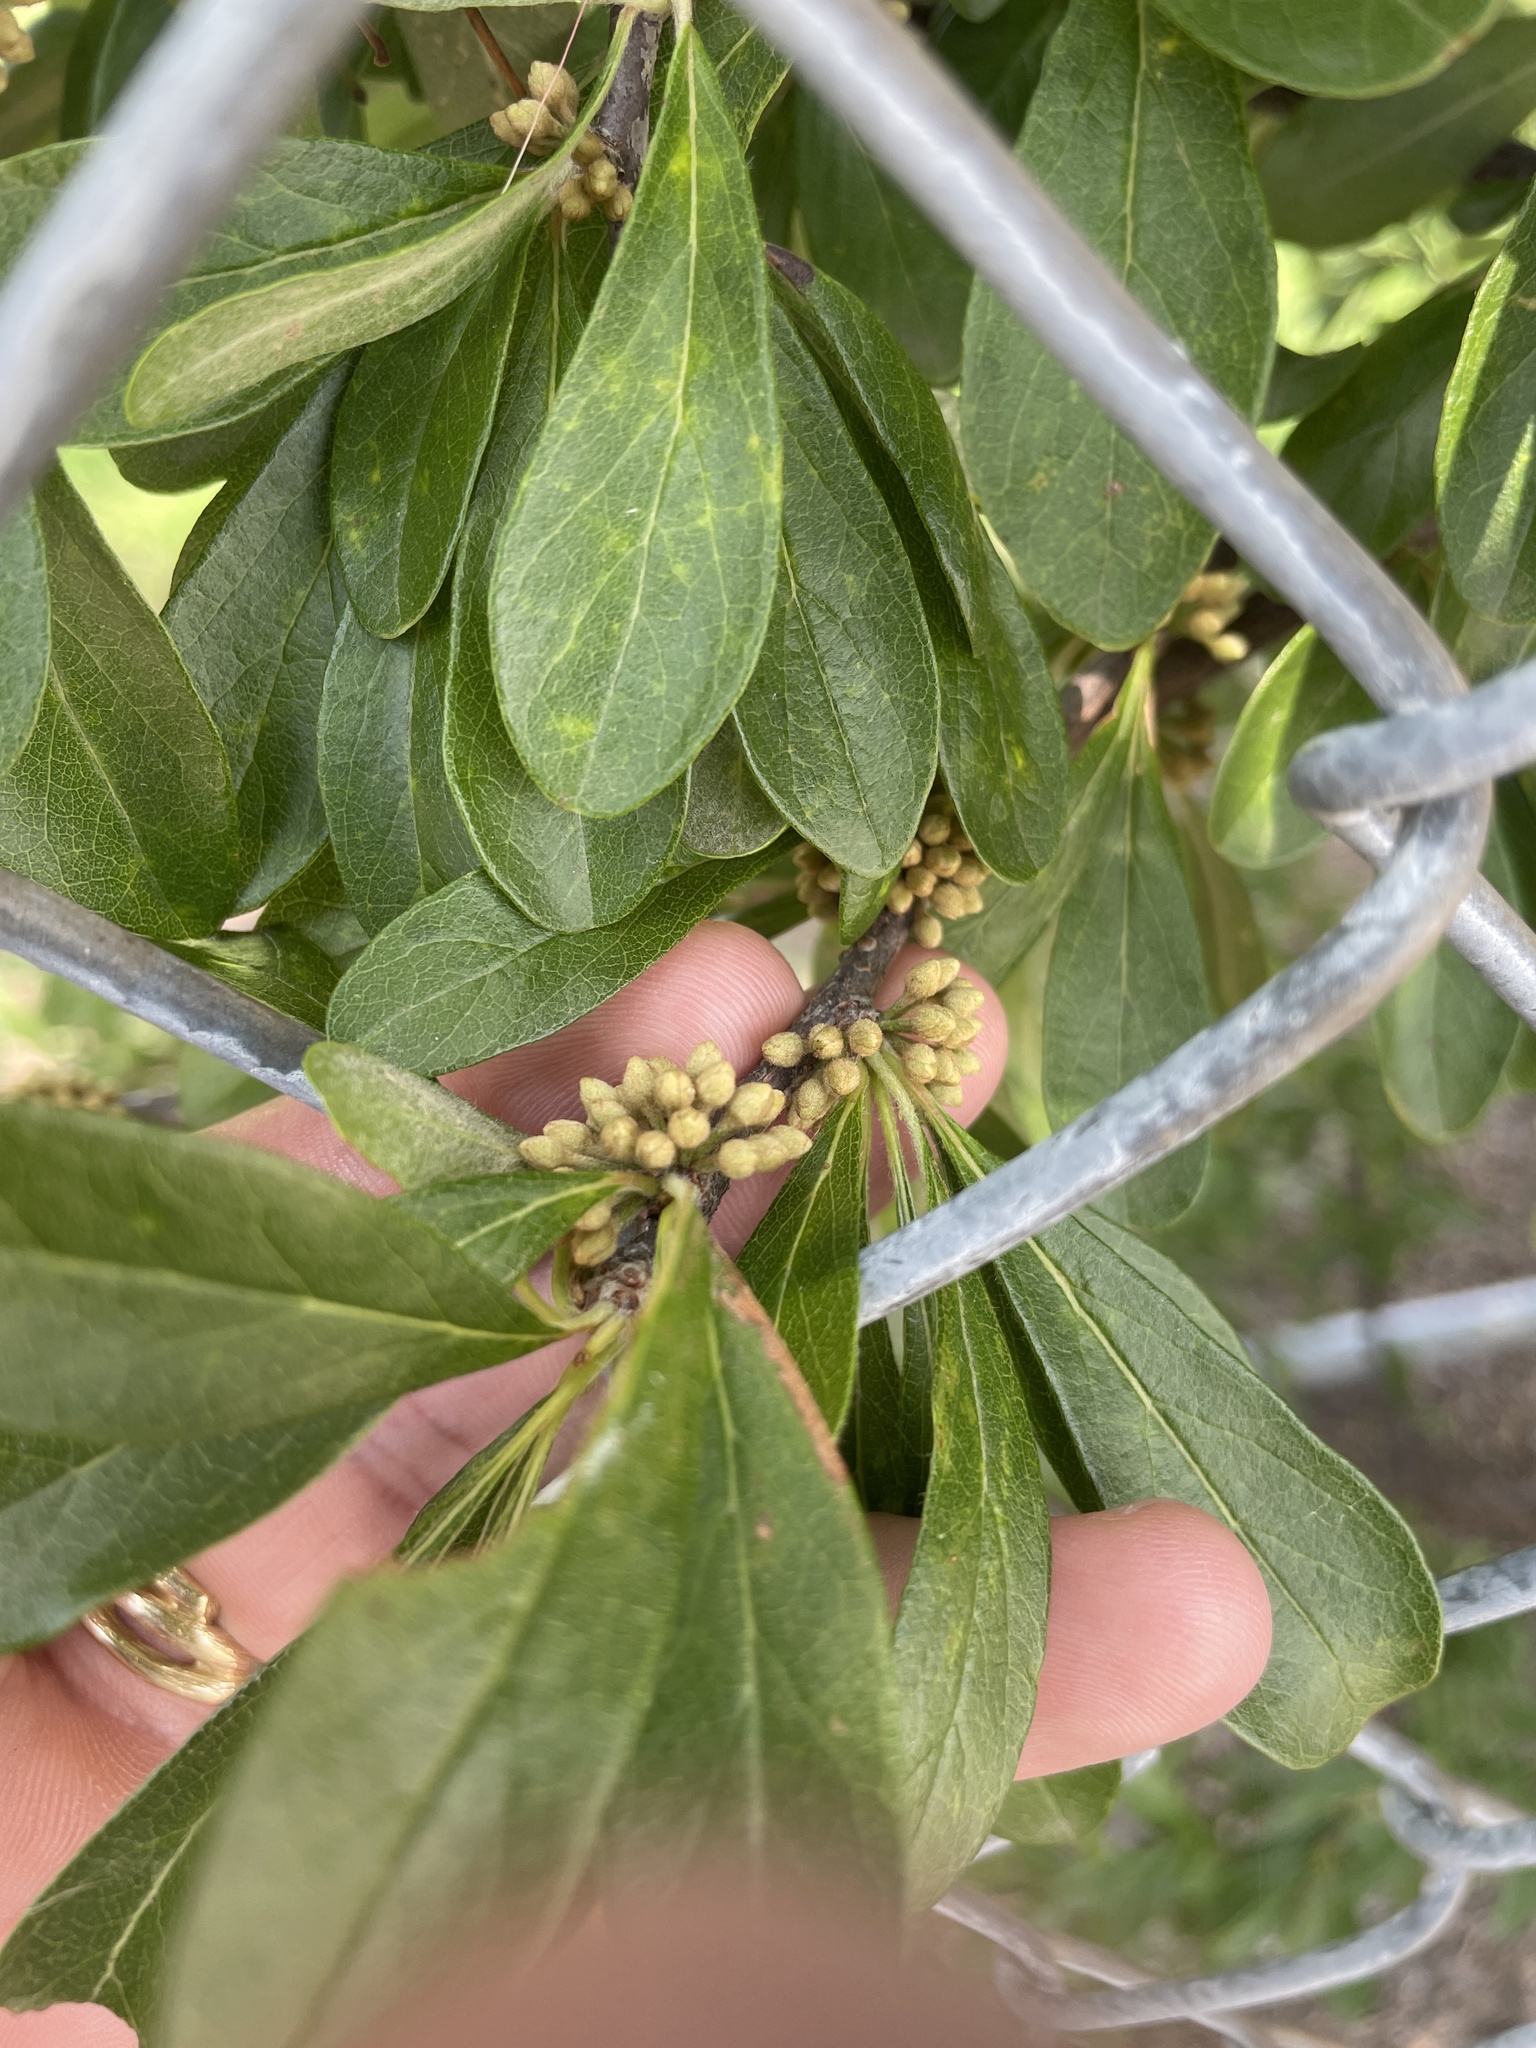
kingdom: Plantae
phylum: Tracheophyta
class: Magnoliopsida
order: Ericales
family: Sapotaceae
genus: Sideroxylon
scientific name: Sideroxylon lanuginosum
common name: Chittamwood
